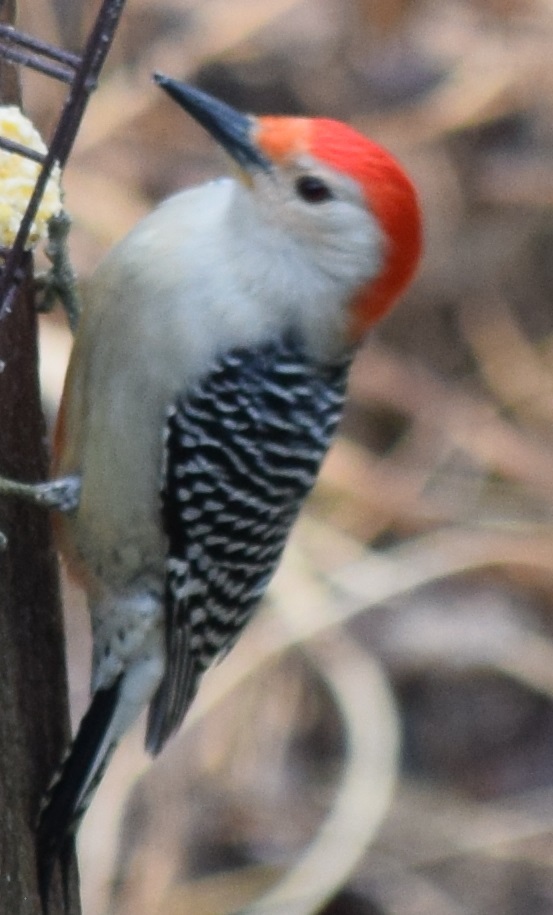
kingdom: Animalia
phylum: Chordata
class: Aves
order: Piciformes
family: Picidae
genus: Melanerpes
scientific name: Melanerpes carolinus
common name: Red-bellied woodpecker
